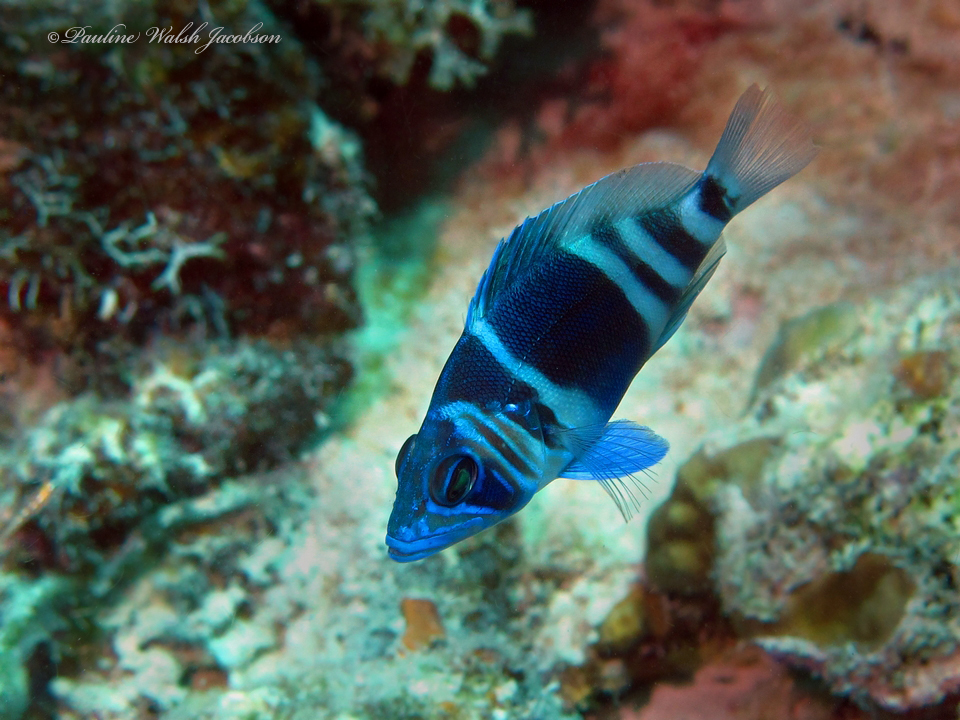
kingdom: Animalia
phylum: Chordata
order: Perciformes
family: Serranidae
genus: Hypoplectrus
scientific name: Hypoplectrus indigo
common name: Indigo hamlet
